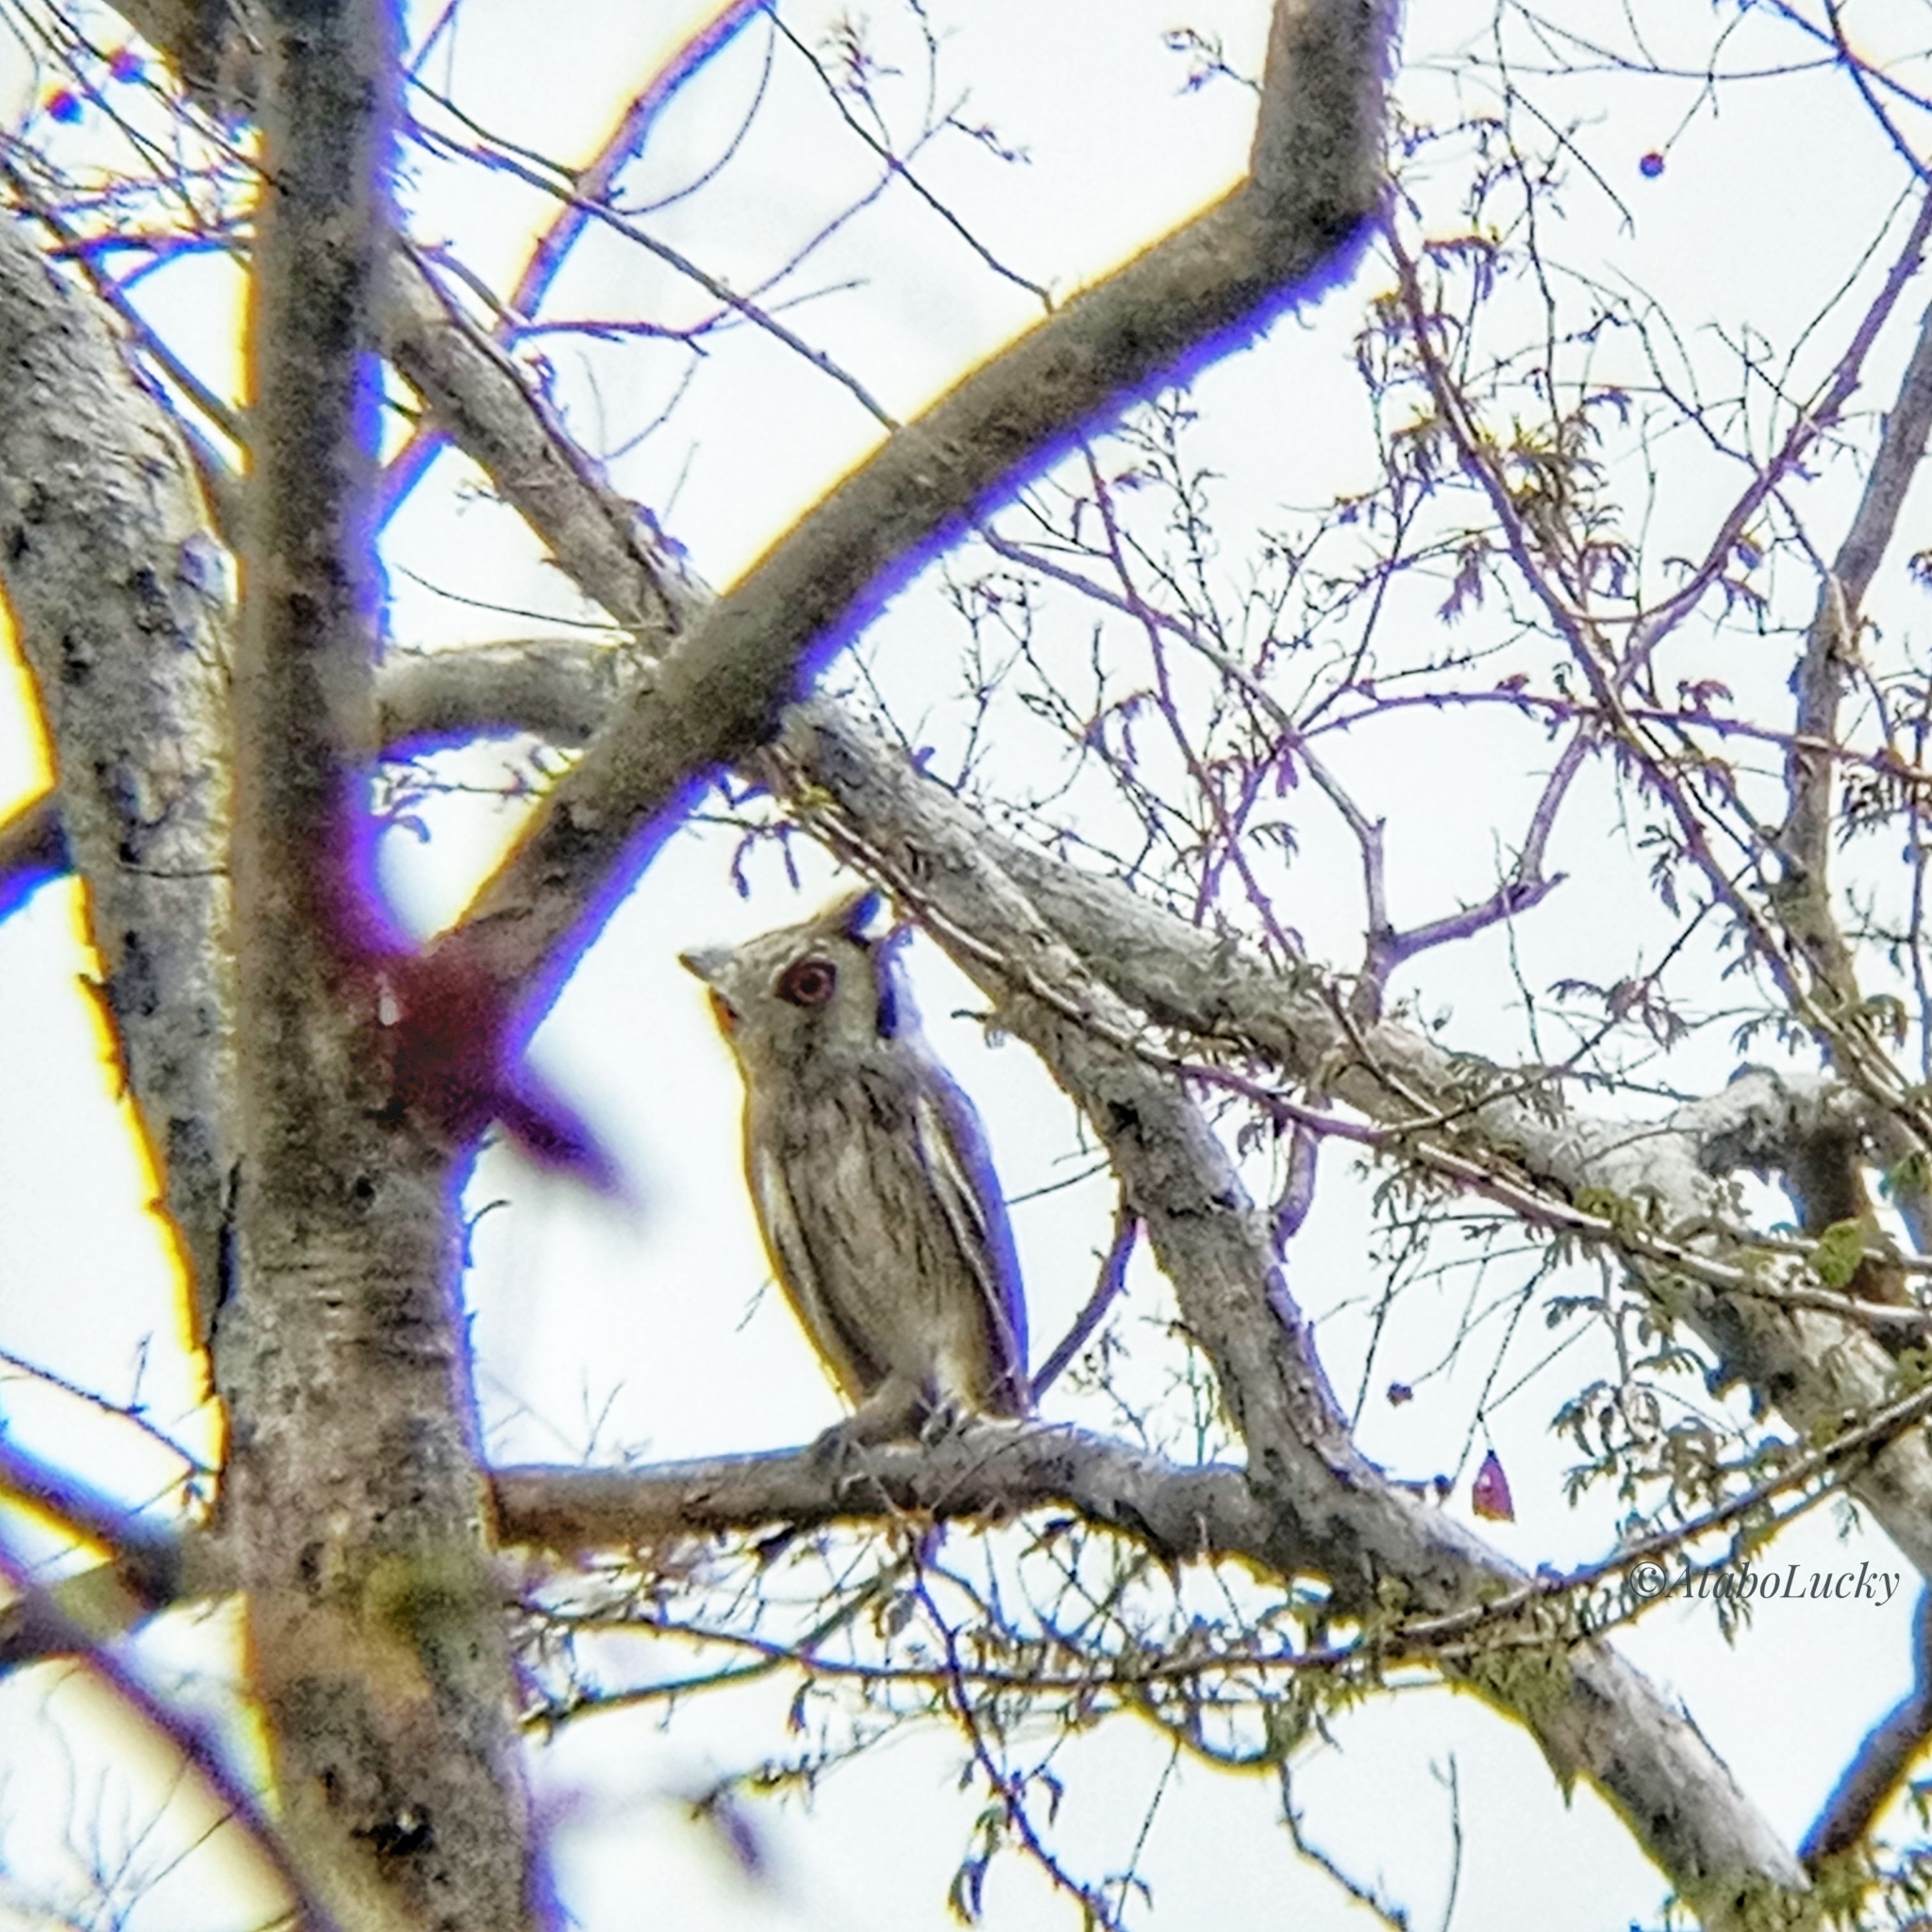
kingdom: Animalia
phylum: Chordata
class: Aves
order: Strigiformes
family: Strigidae
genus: Ptilopsis
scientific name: Ptilopsis leucotis
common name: Northern white-faced owl
